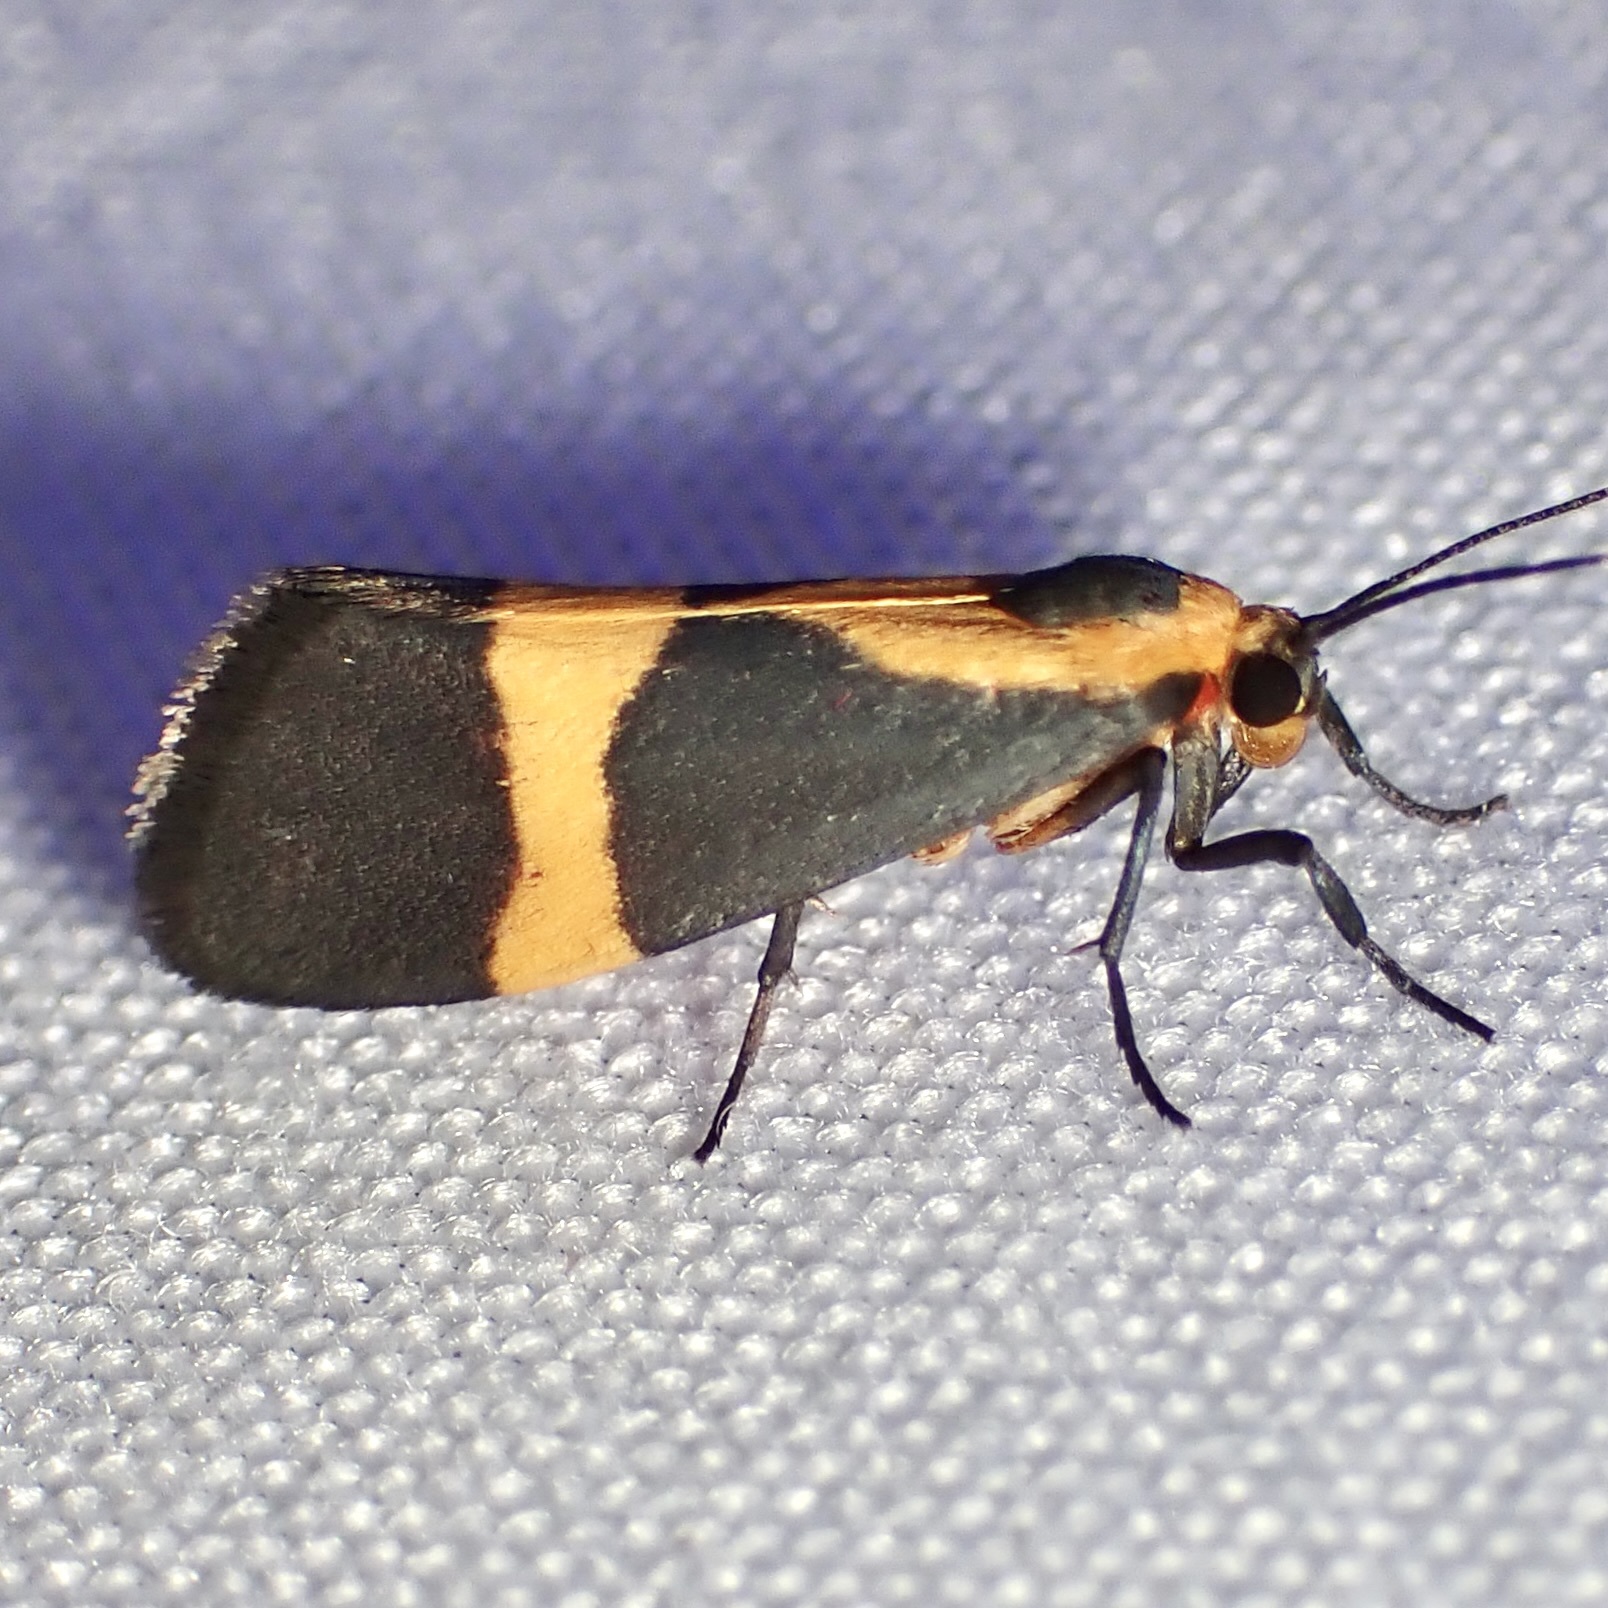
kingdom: Animalia
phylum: Arthropoda
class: Insecta
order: Lepidoptera
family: Erebidae
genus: Cisthene
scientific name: Cisthene tenuifascia
